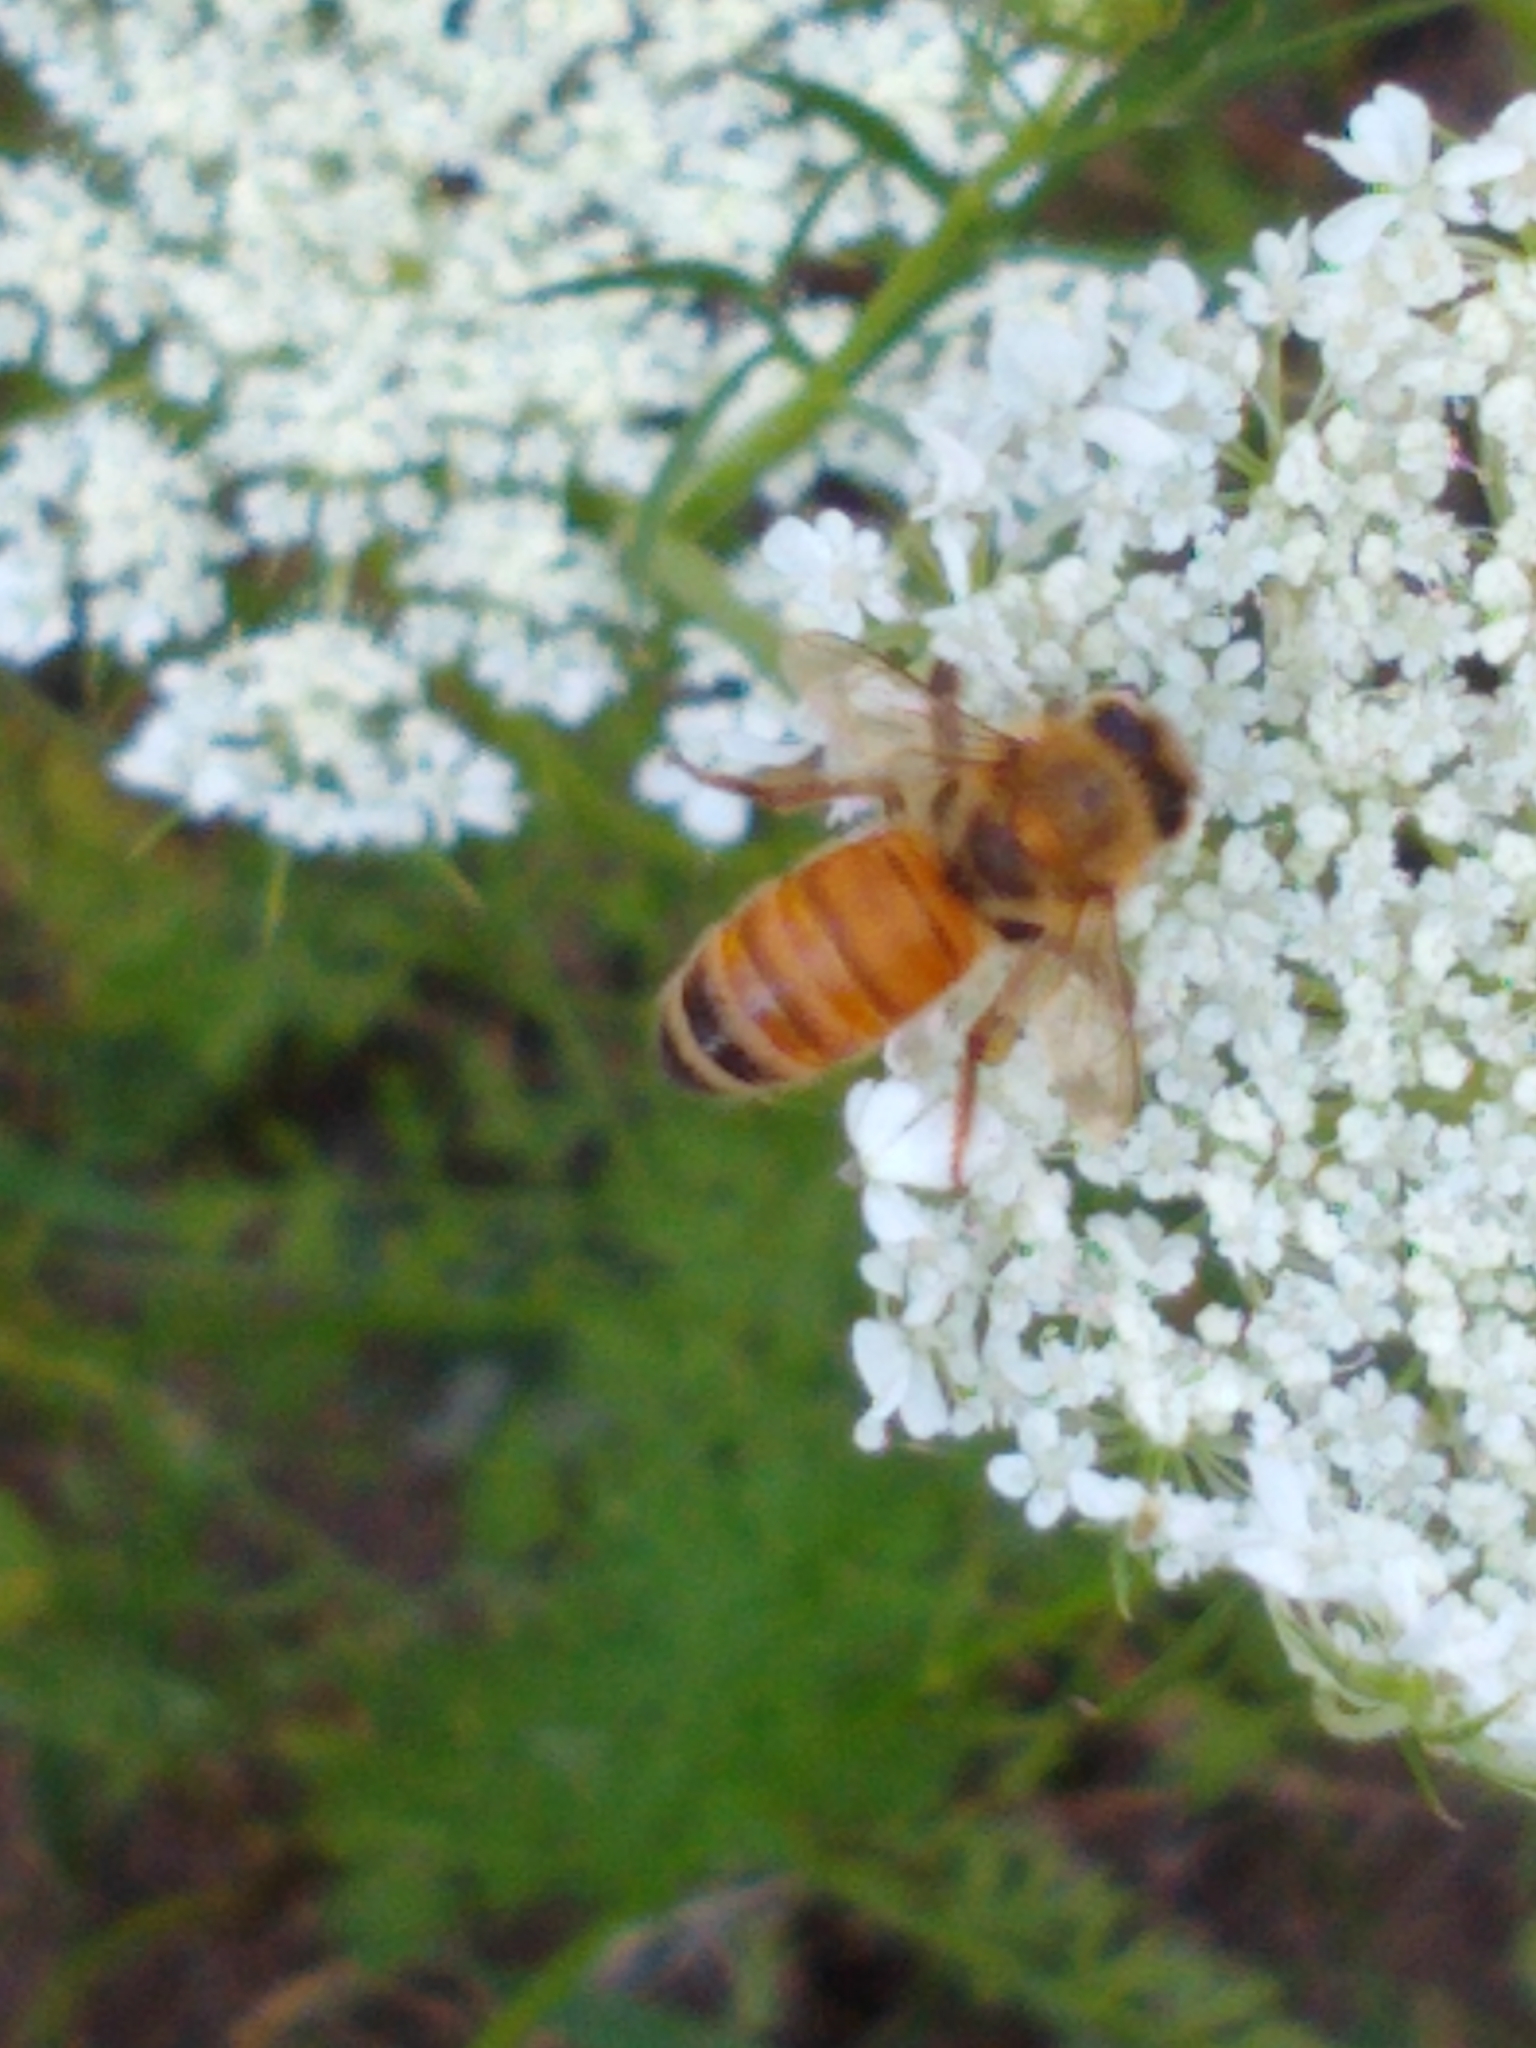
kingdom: Animalia
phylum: Arthropoda
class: Insecta
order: Hymenoptera
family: Apidae
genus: Apis
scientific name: Apis mellifera
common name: Honey bee
